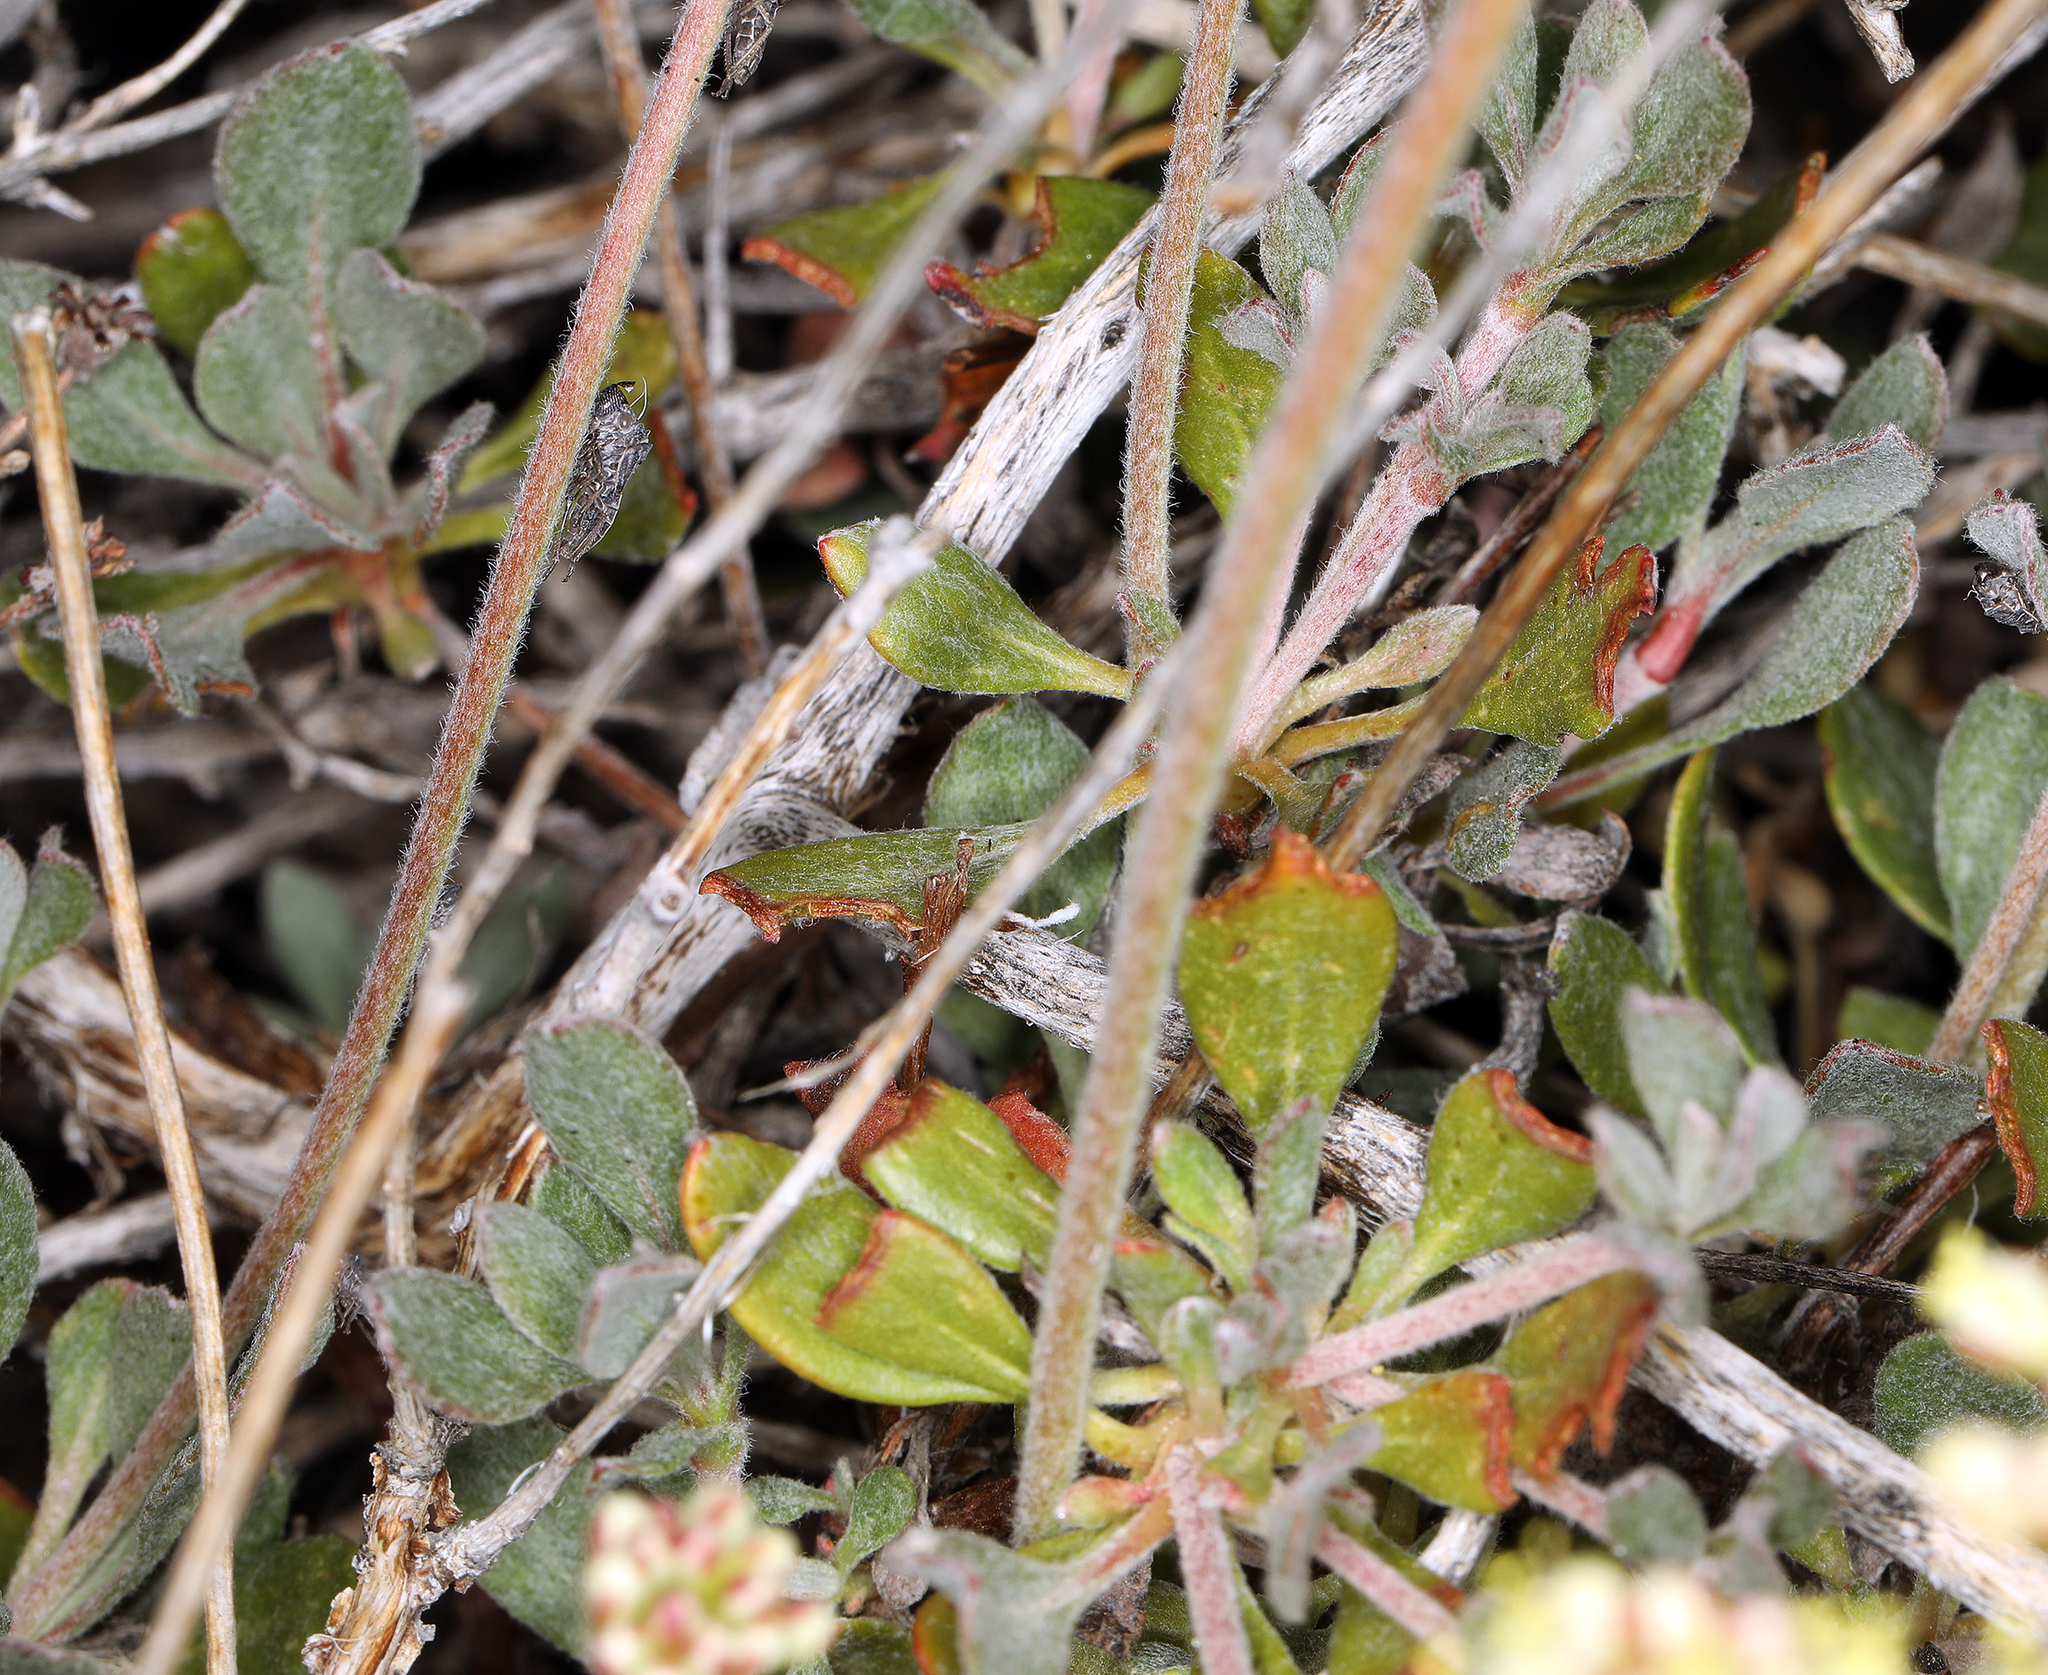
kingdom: Plantae
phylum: Tracheophyta
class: Magnoliopsida
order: Caryophyllales
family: Polygonaceae
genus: Eriogonum
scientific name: Eriogonum umbellatum
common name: Sulfur-buckwheat
